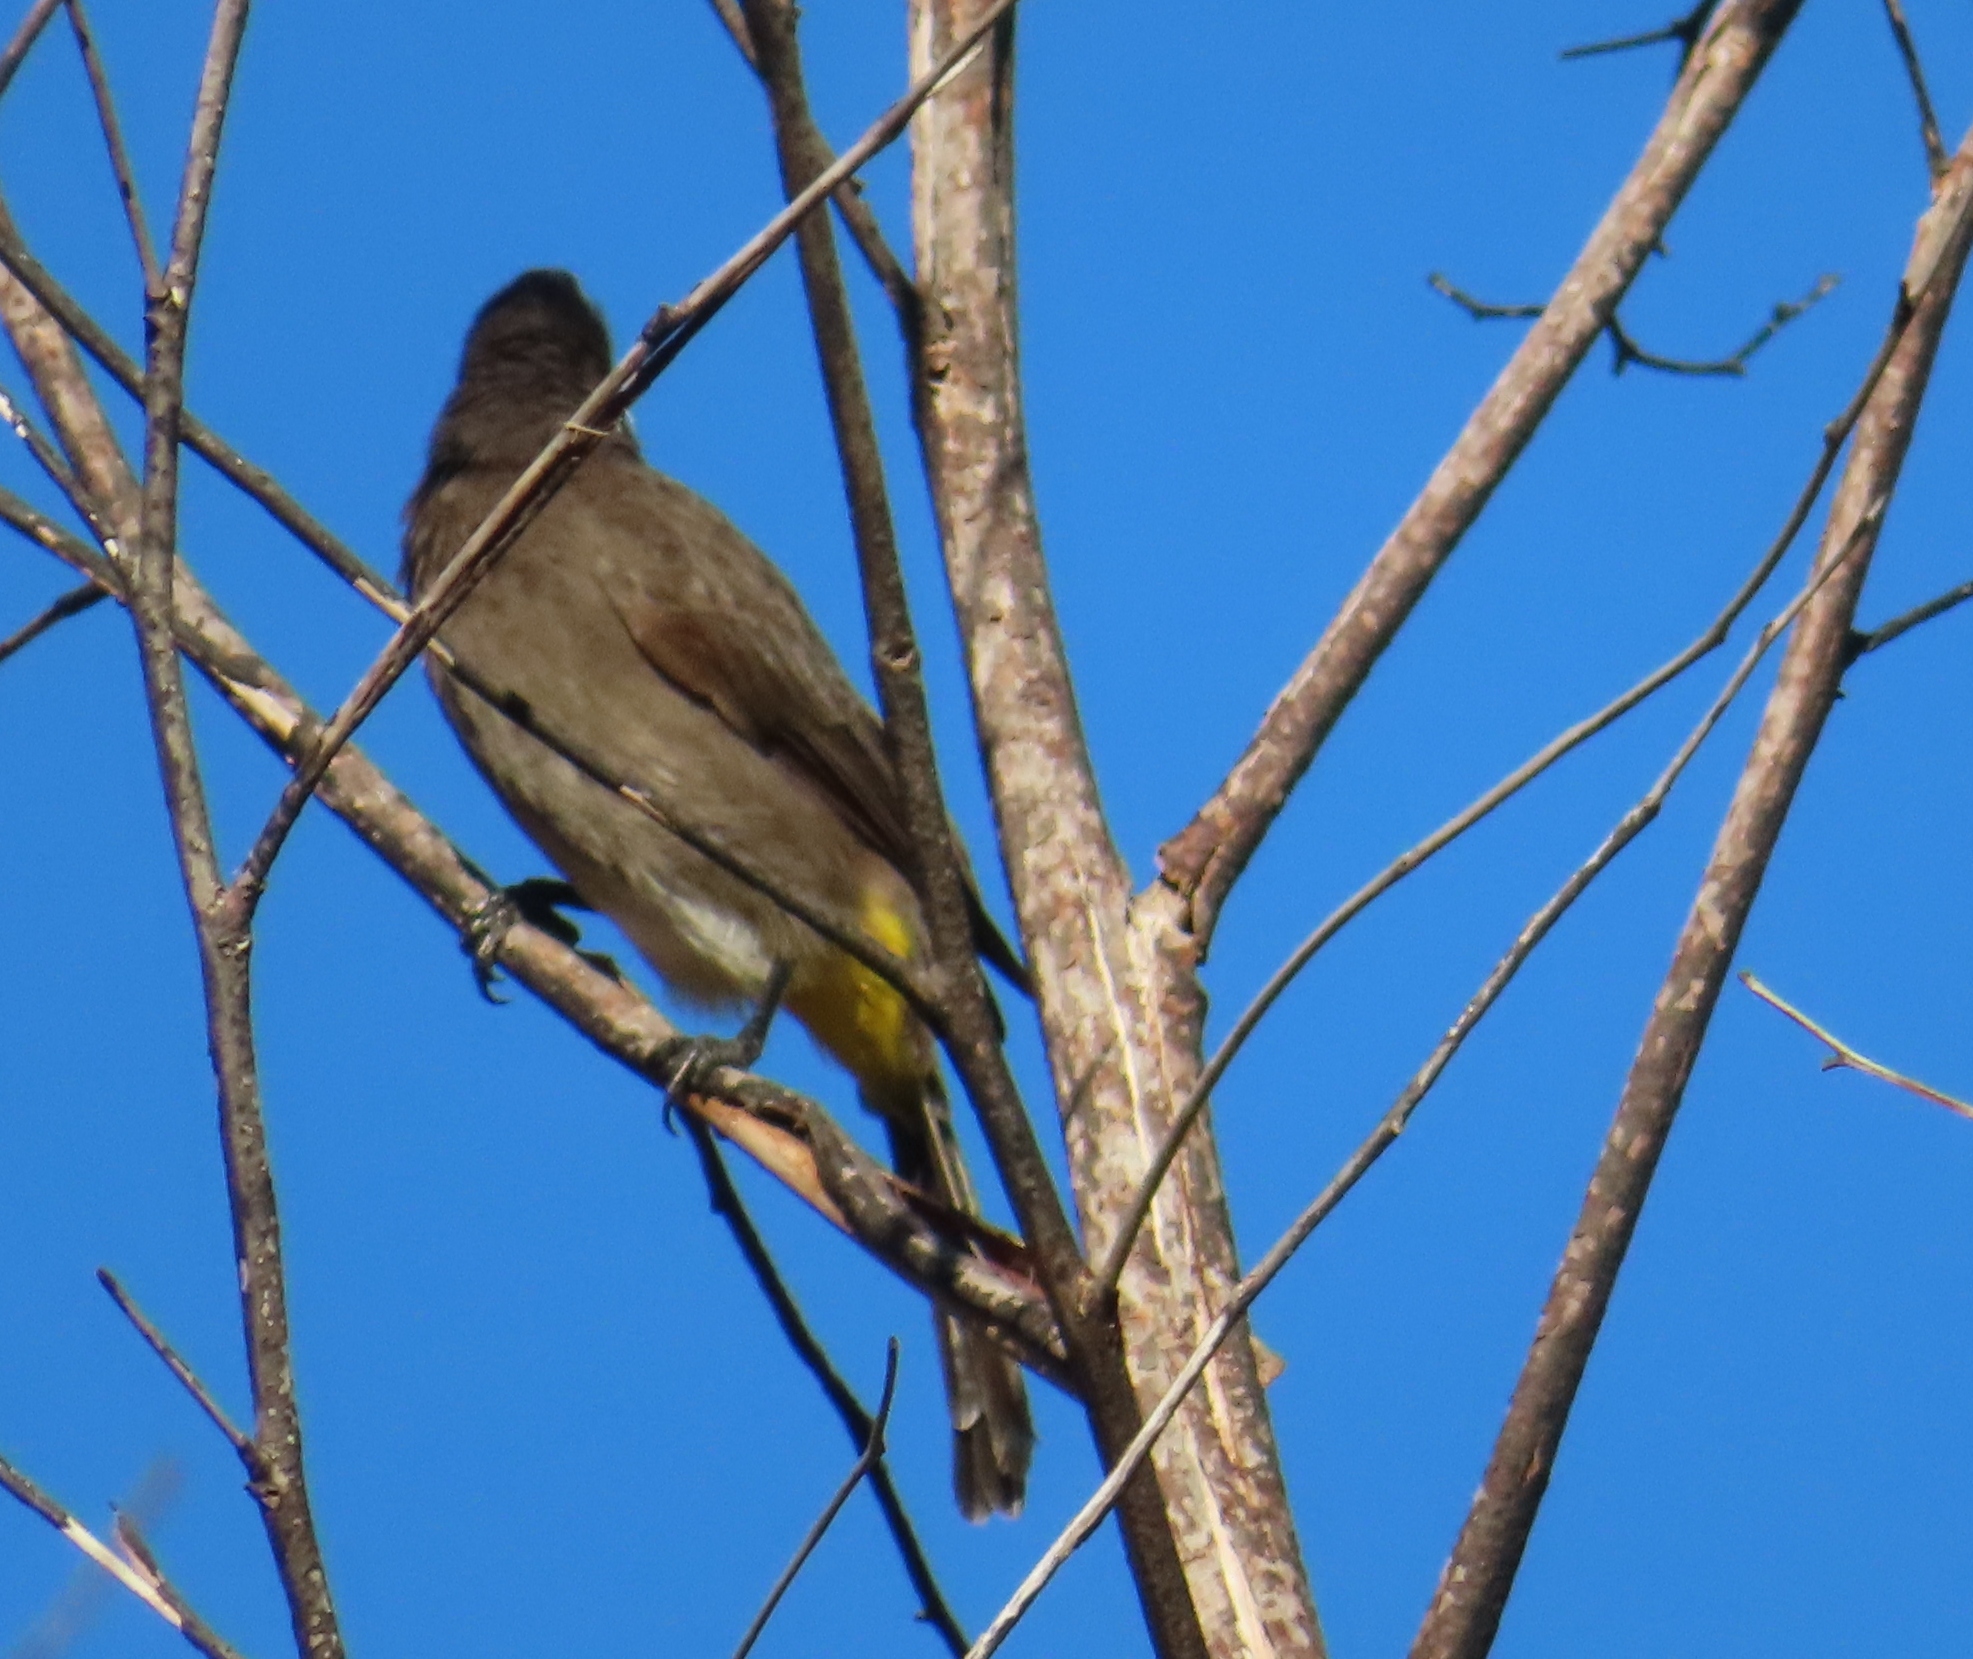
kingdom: Animalia
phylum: Chordata
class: Aves
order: Passeriformes
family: Pycnonotidae
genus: Pycnonotus
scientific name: Pycnonotus capensis
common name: Cape bulbul
